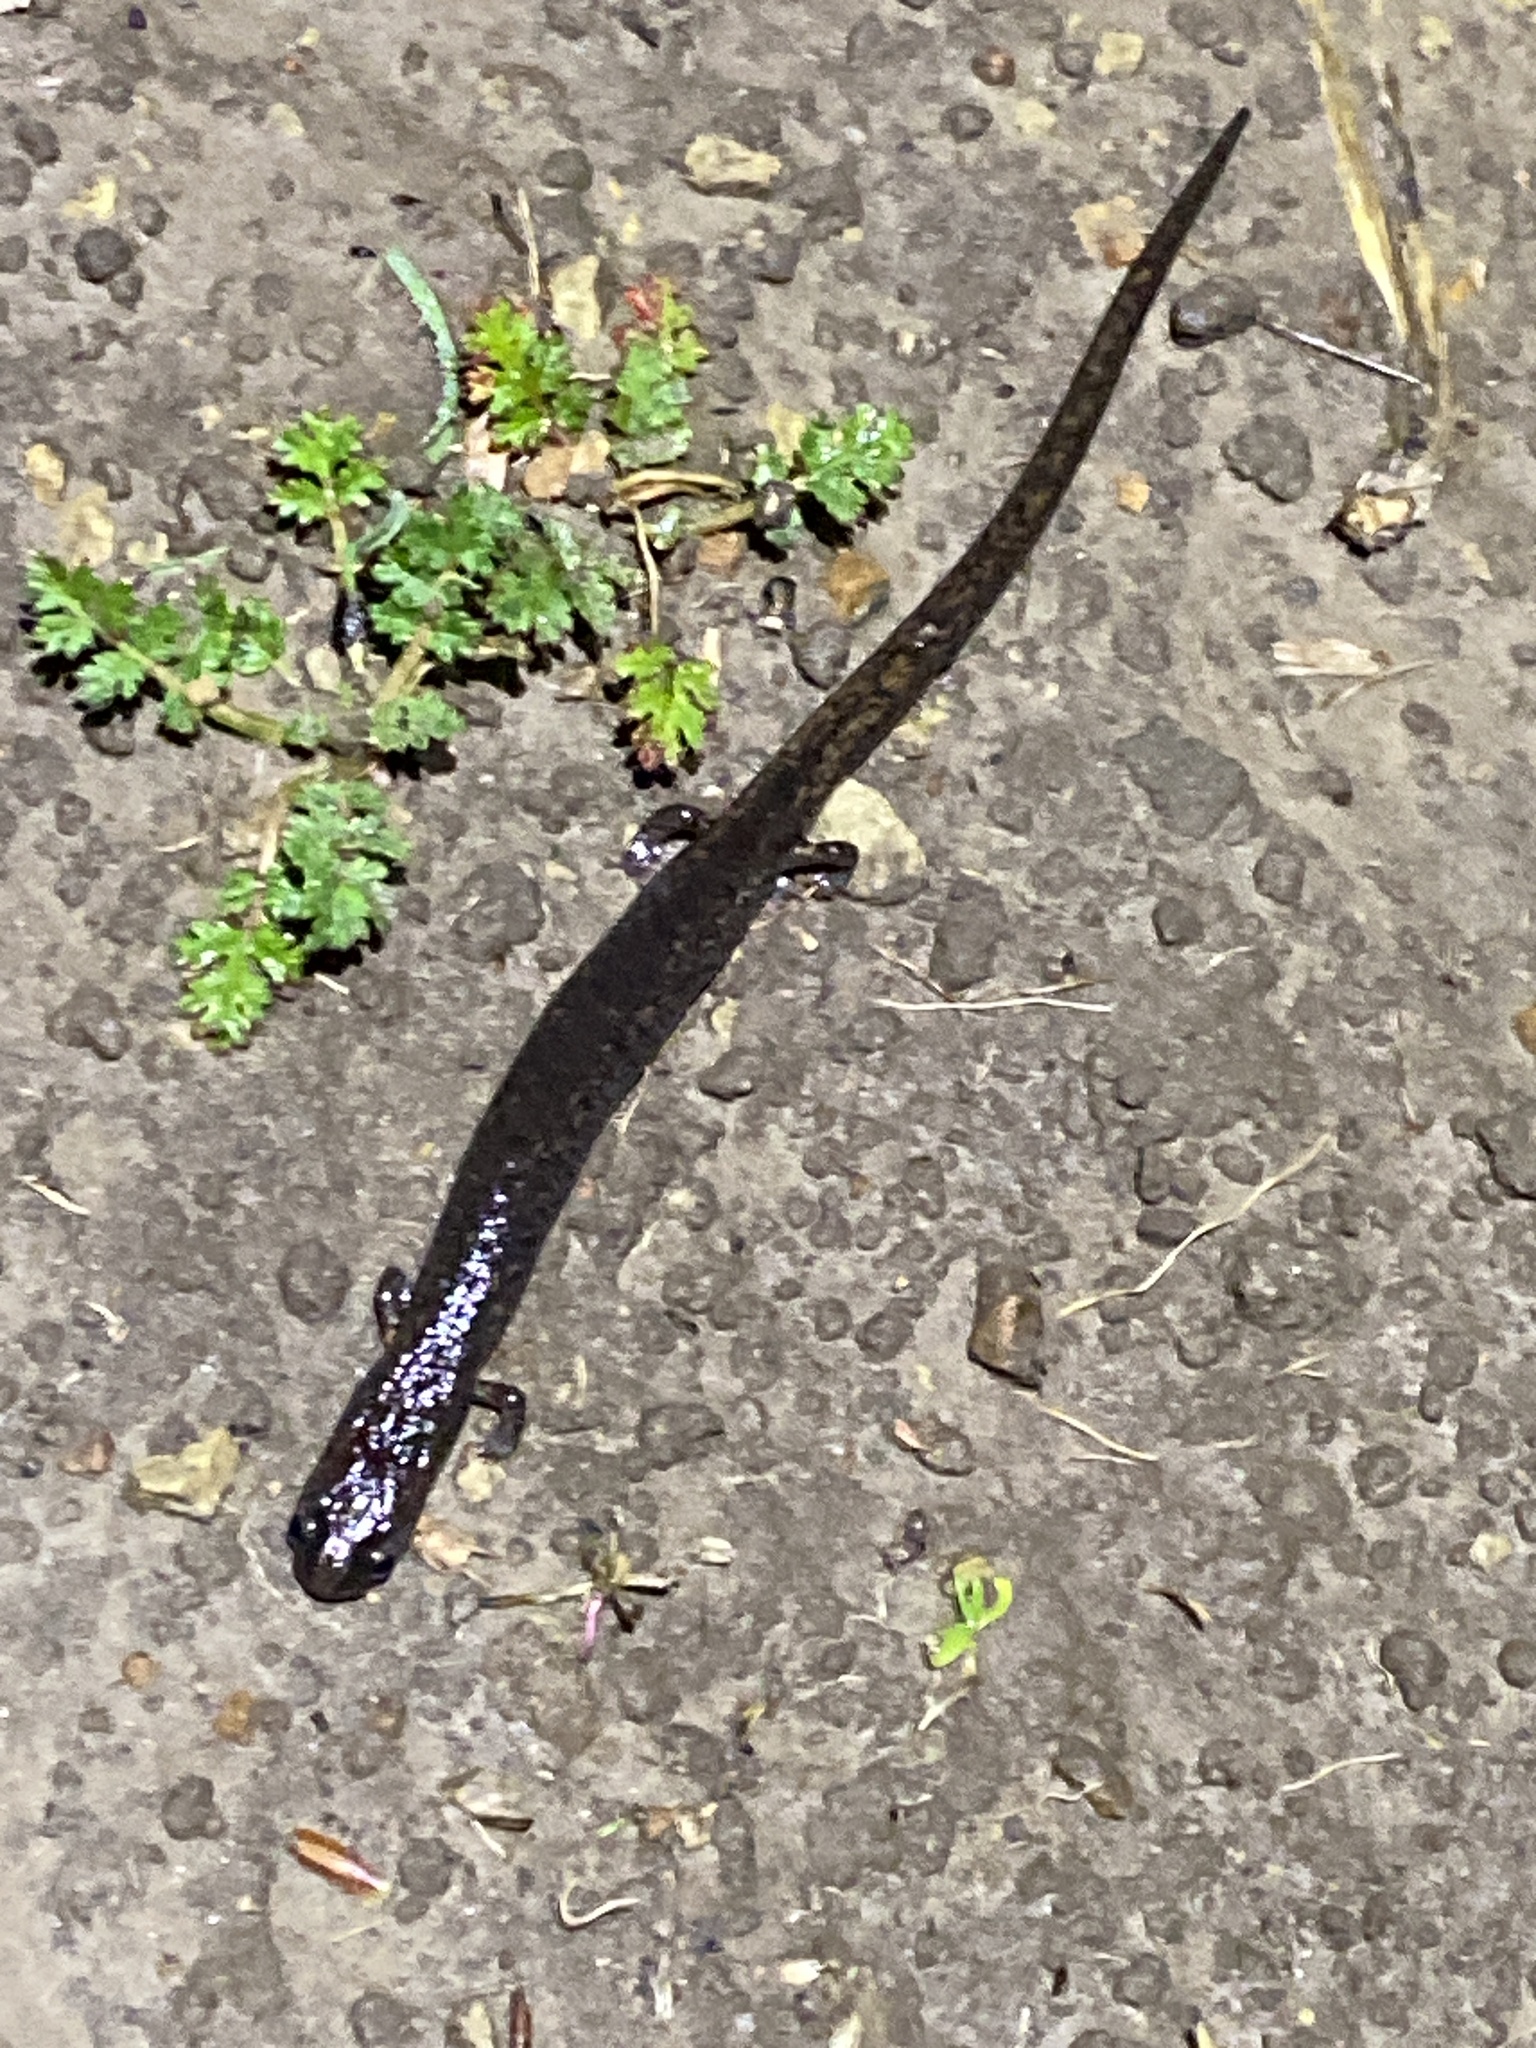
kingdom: Animalia
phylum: Chordata
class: Amphibia
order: Caudata
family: Plethodontidae
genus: Batrachoseps
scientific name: Batrachoseps attenuatus
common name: California slender salamander
